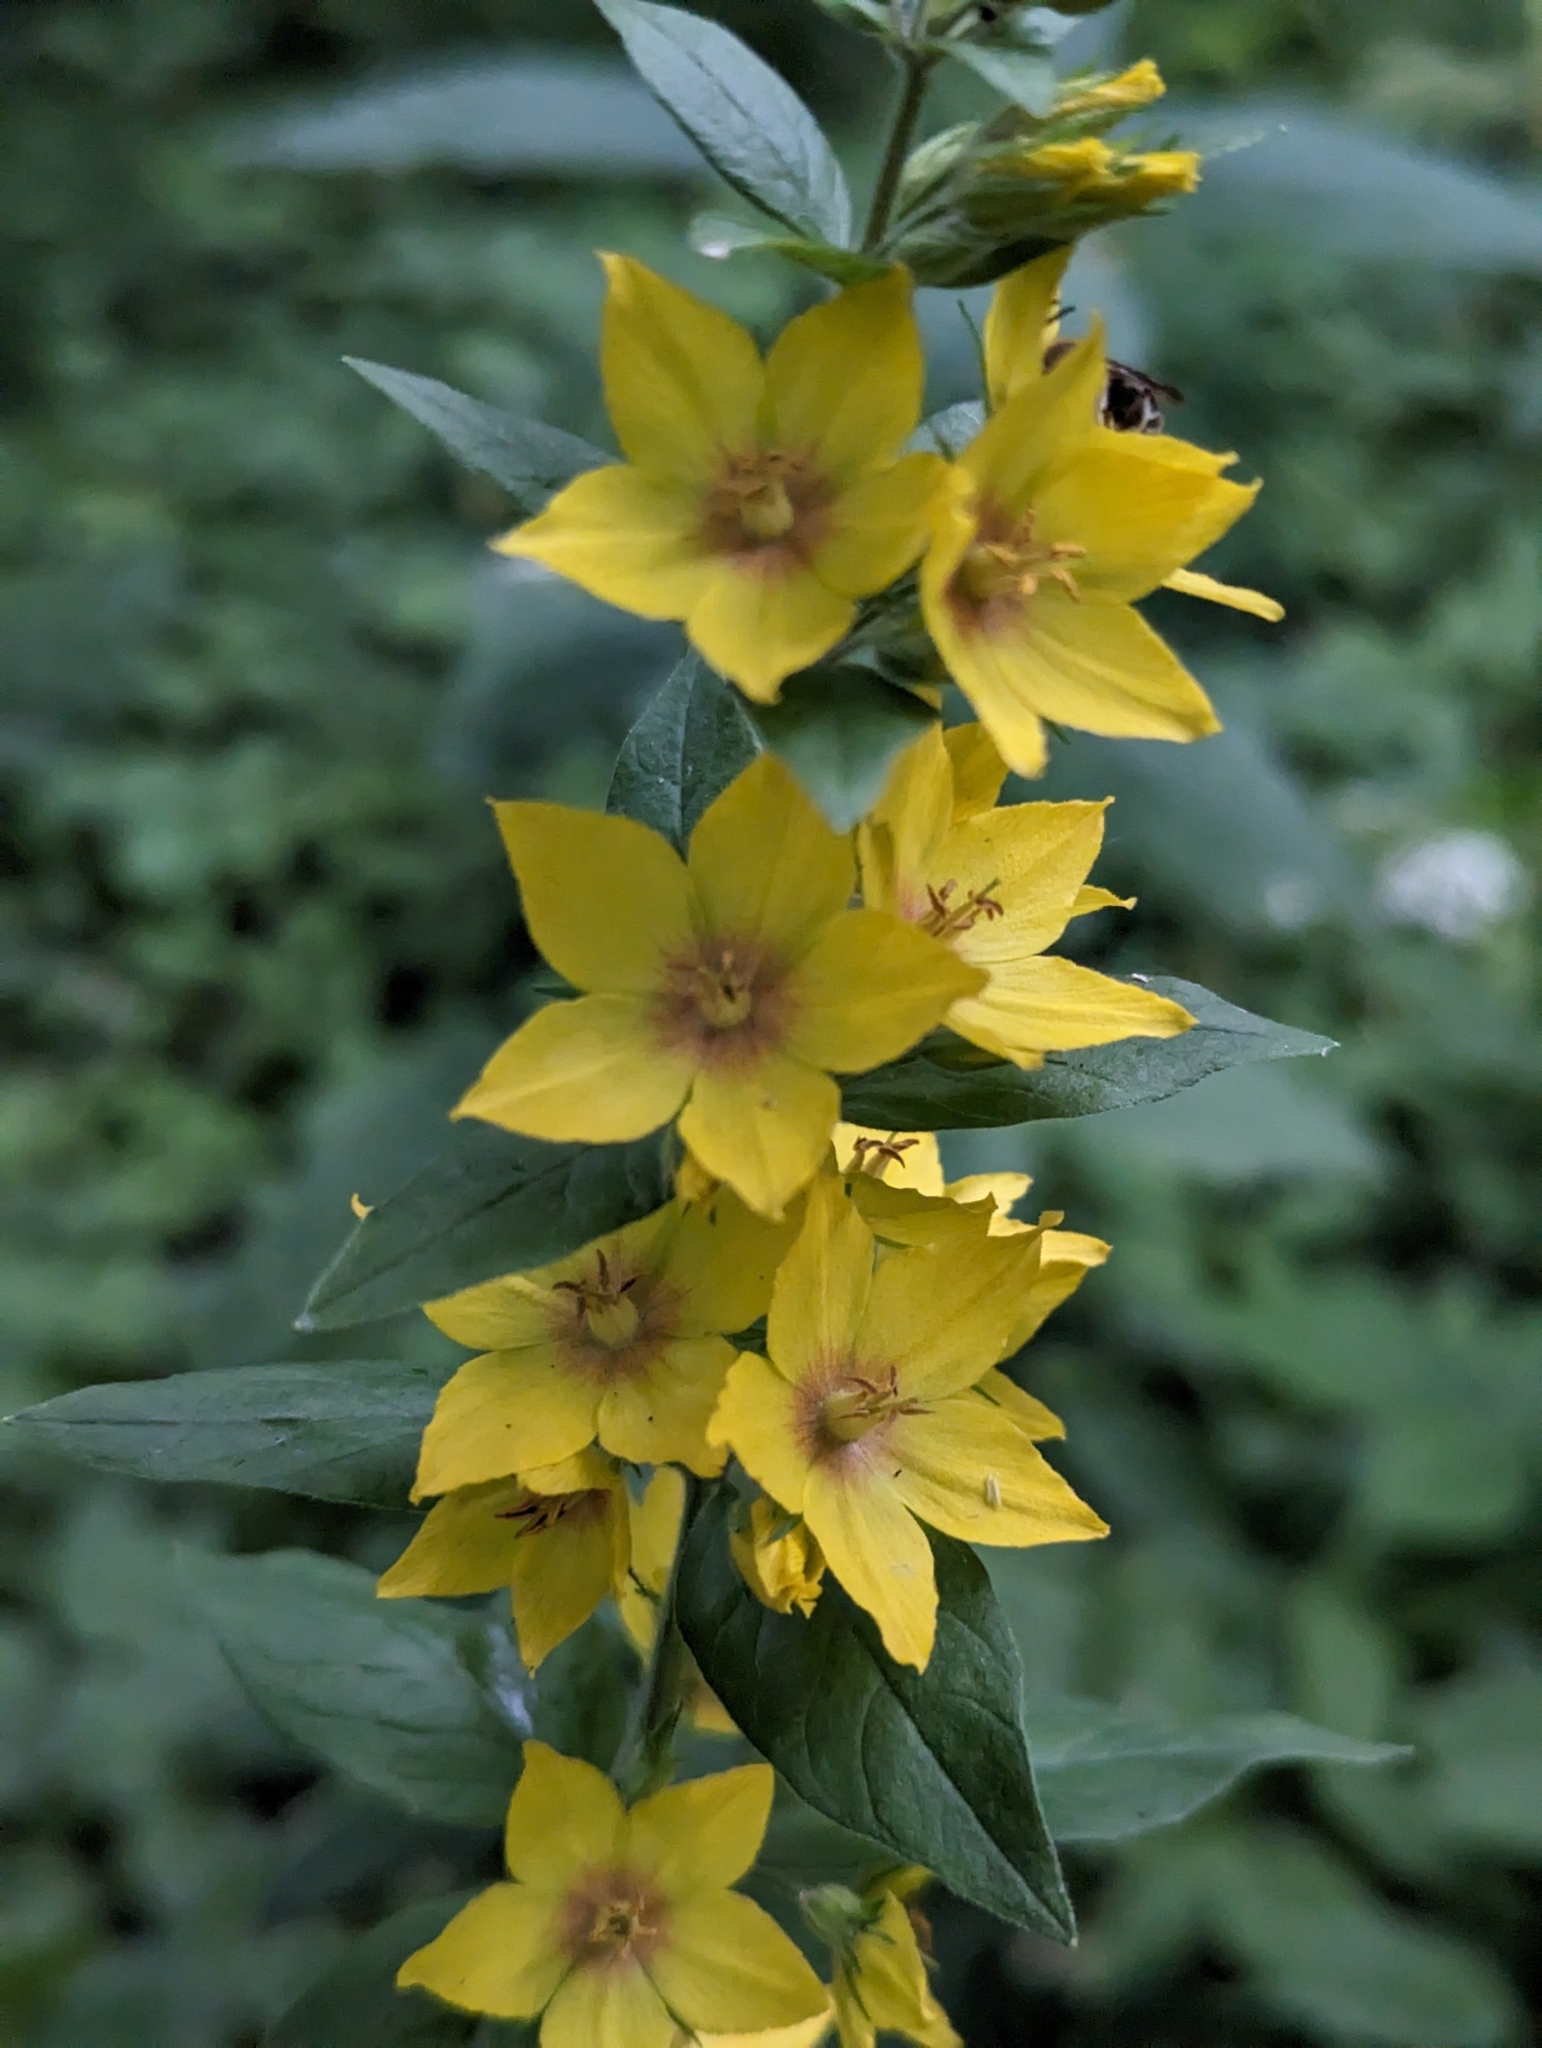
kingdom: Plantae
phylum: Tracheophyta
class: Magnoliopsida
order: Ericales
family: Primulaceae
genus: Lysimachia
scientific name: Lysimachia punctata
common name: Dotted loosestrife
